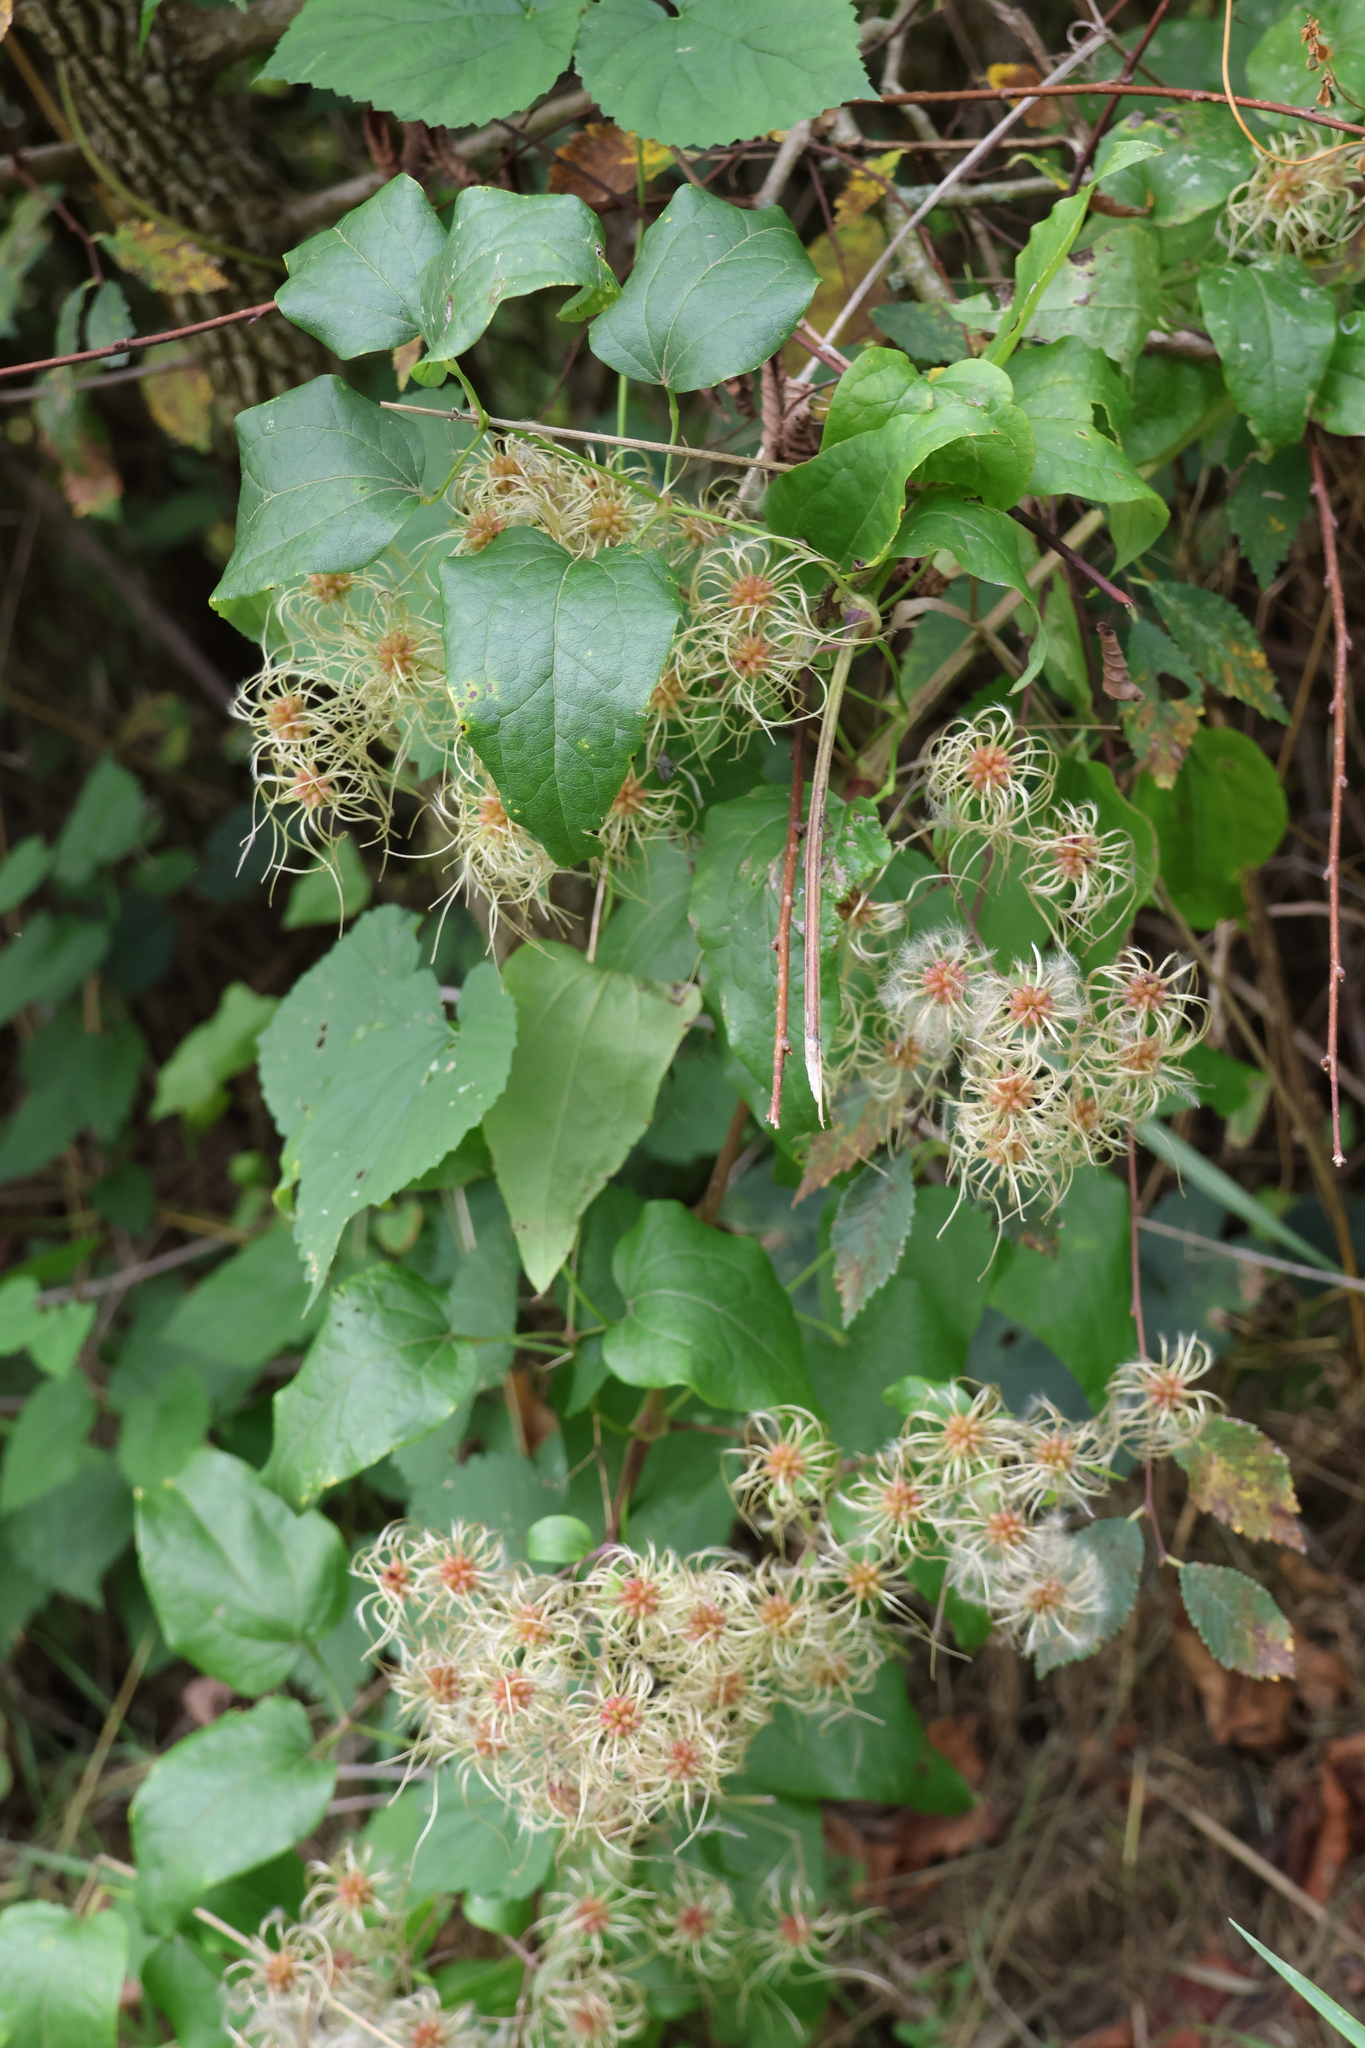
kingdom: Plantae
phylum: Tracheophyta
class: Magnoliopsida
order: Ranunculales
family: Ranunculaceae
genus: Clematis
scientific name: Clematis vitalba
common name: Evergreen clematis
